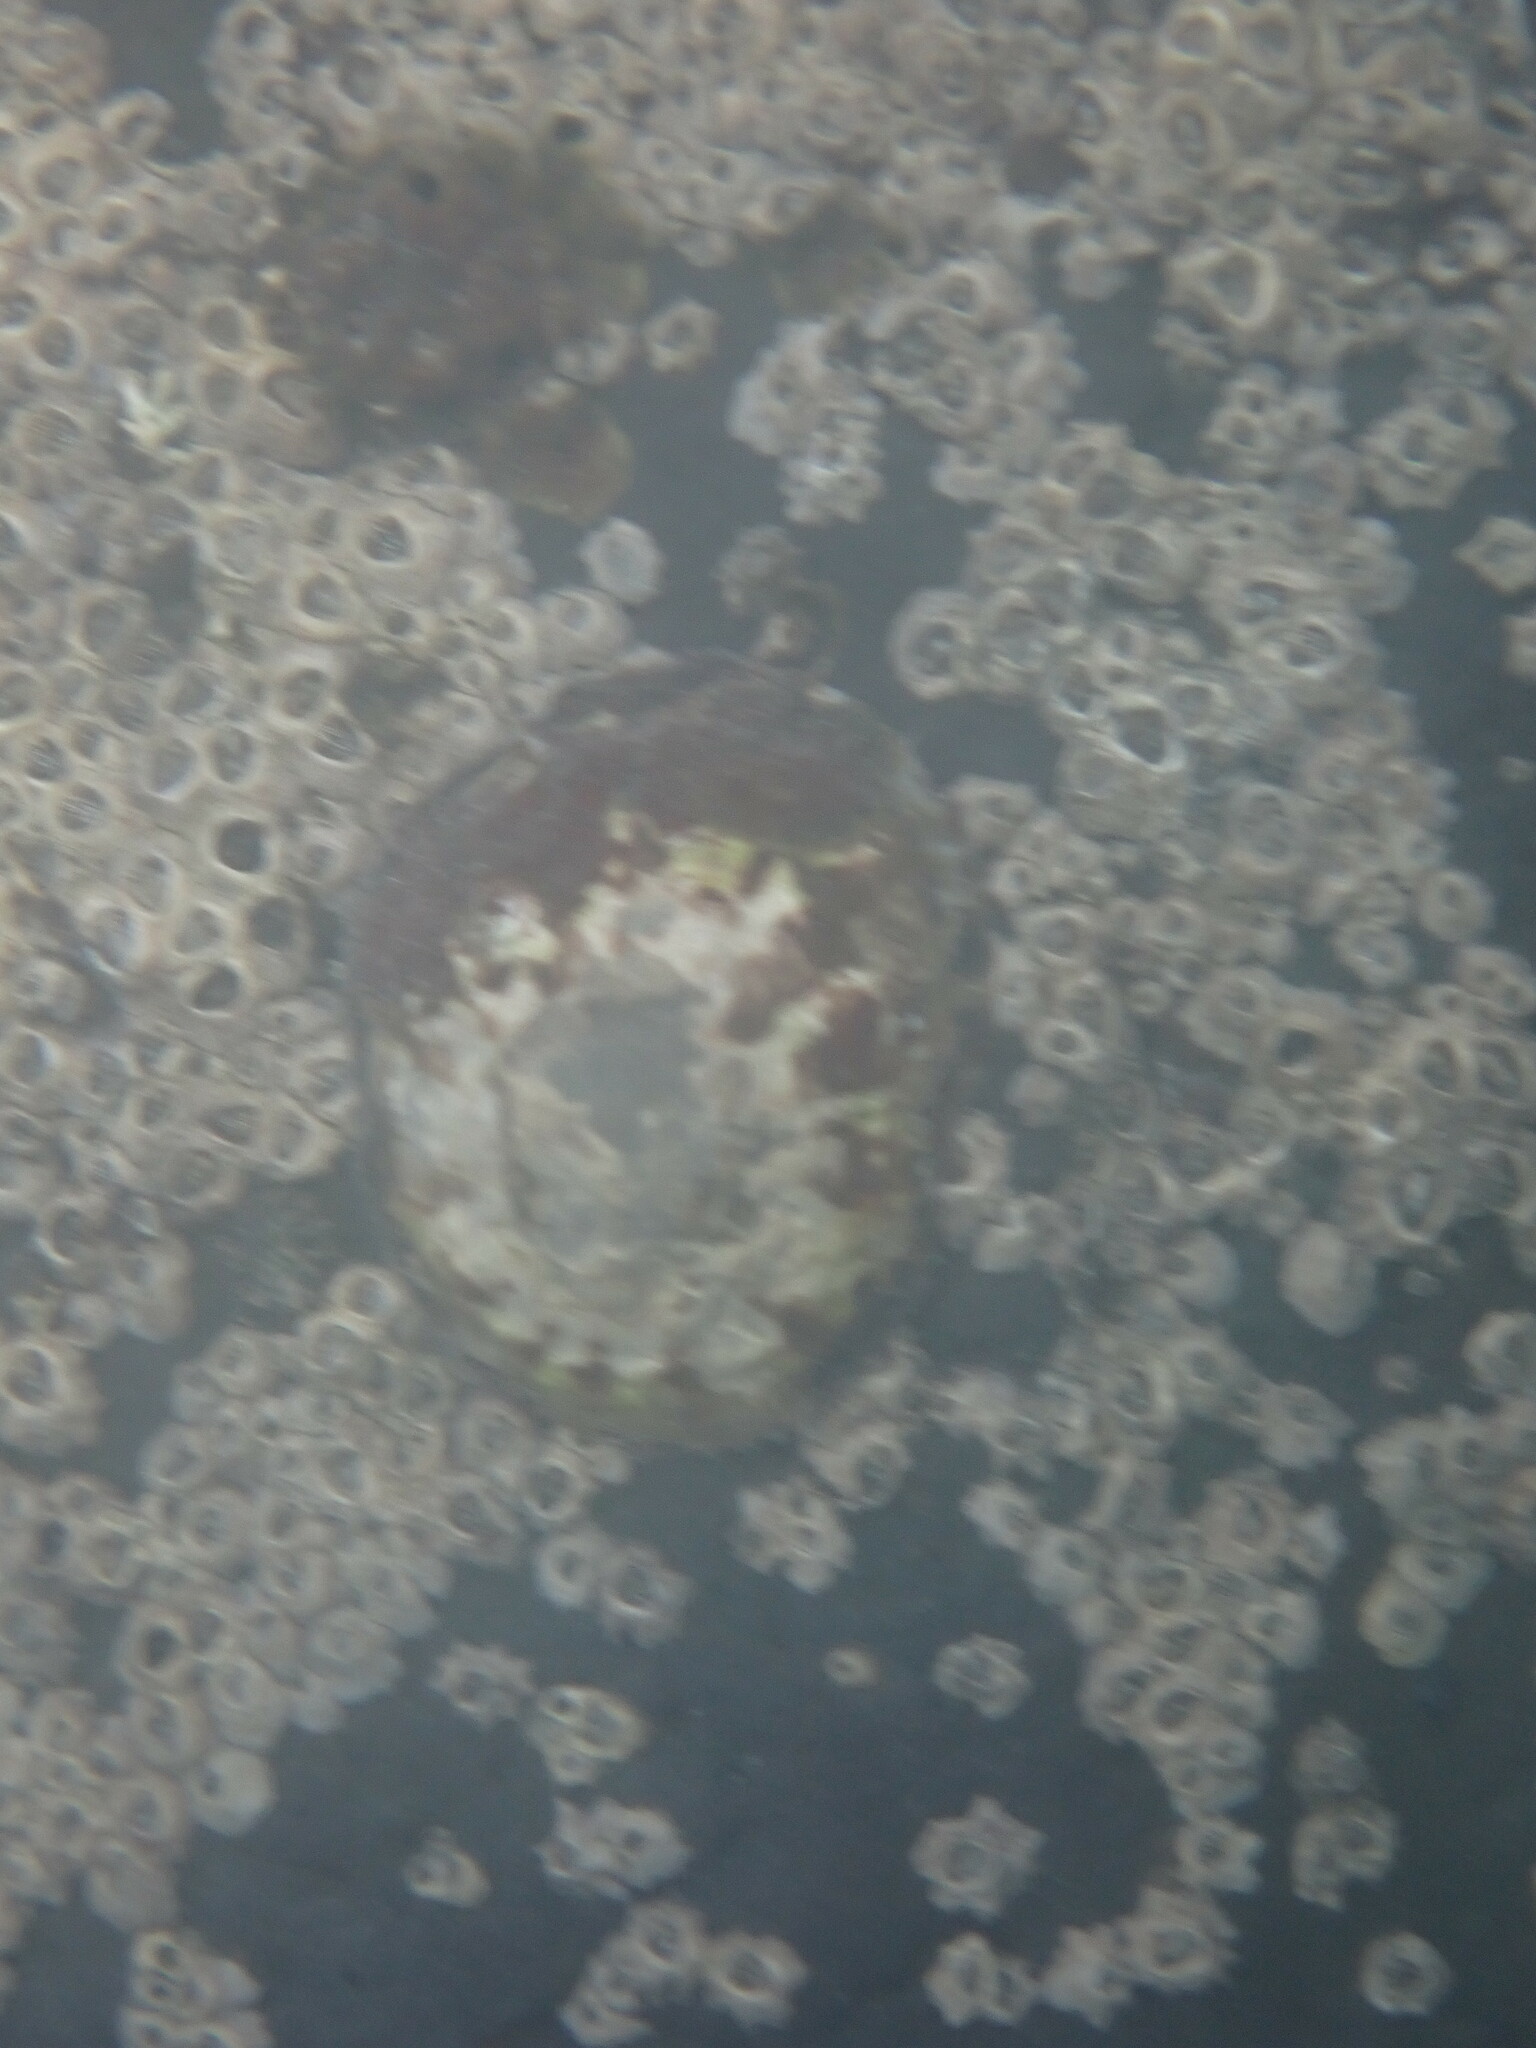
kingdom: Animalia
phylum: Mollusca
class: Gastropoda
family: Nacellidae
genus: Cellana
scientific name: Cellana radians
